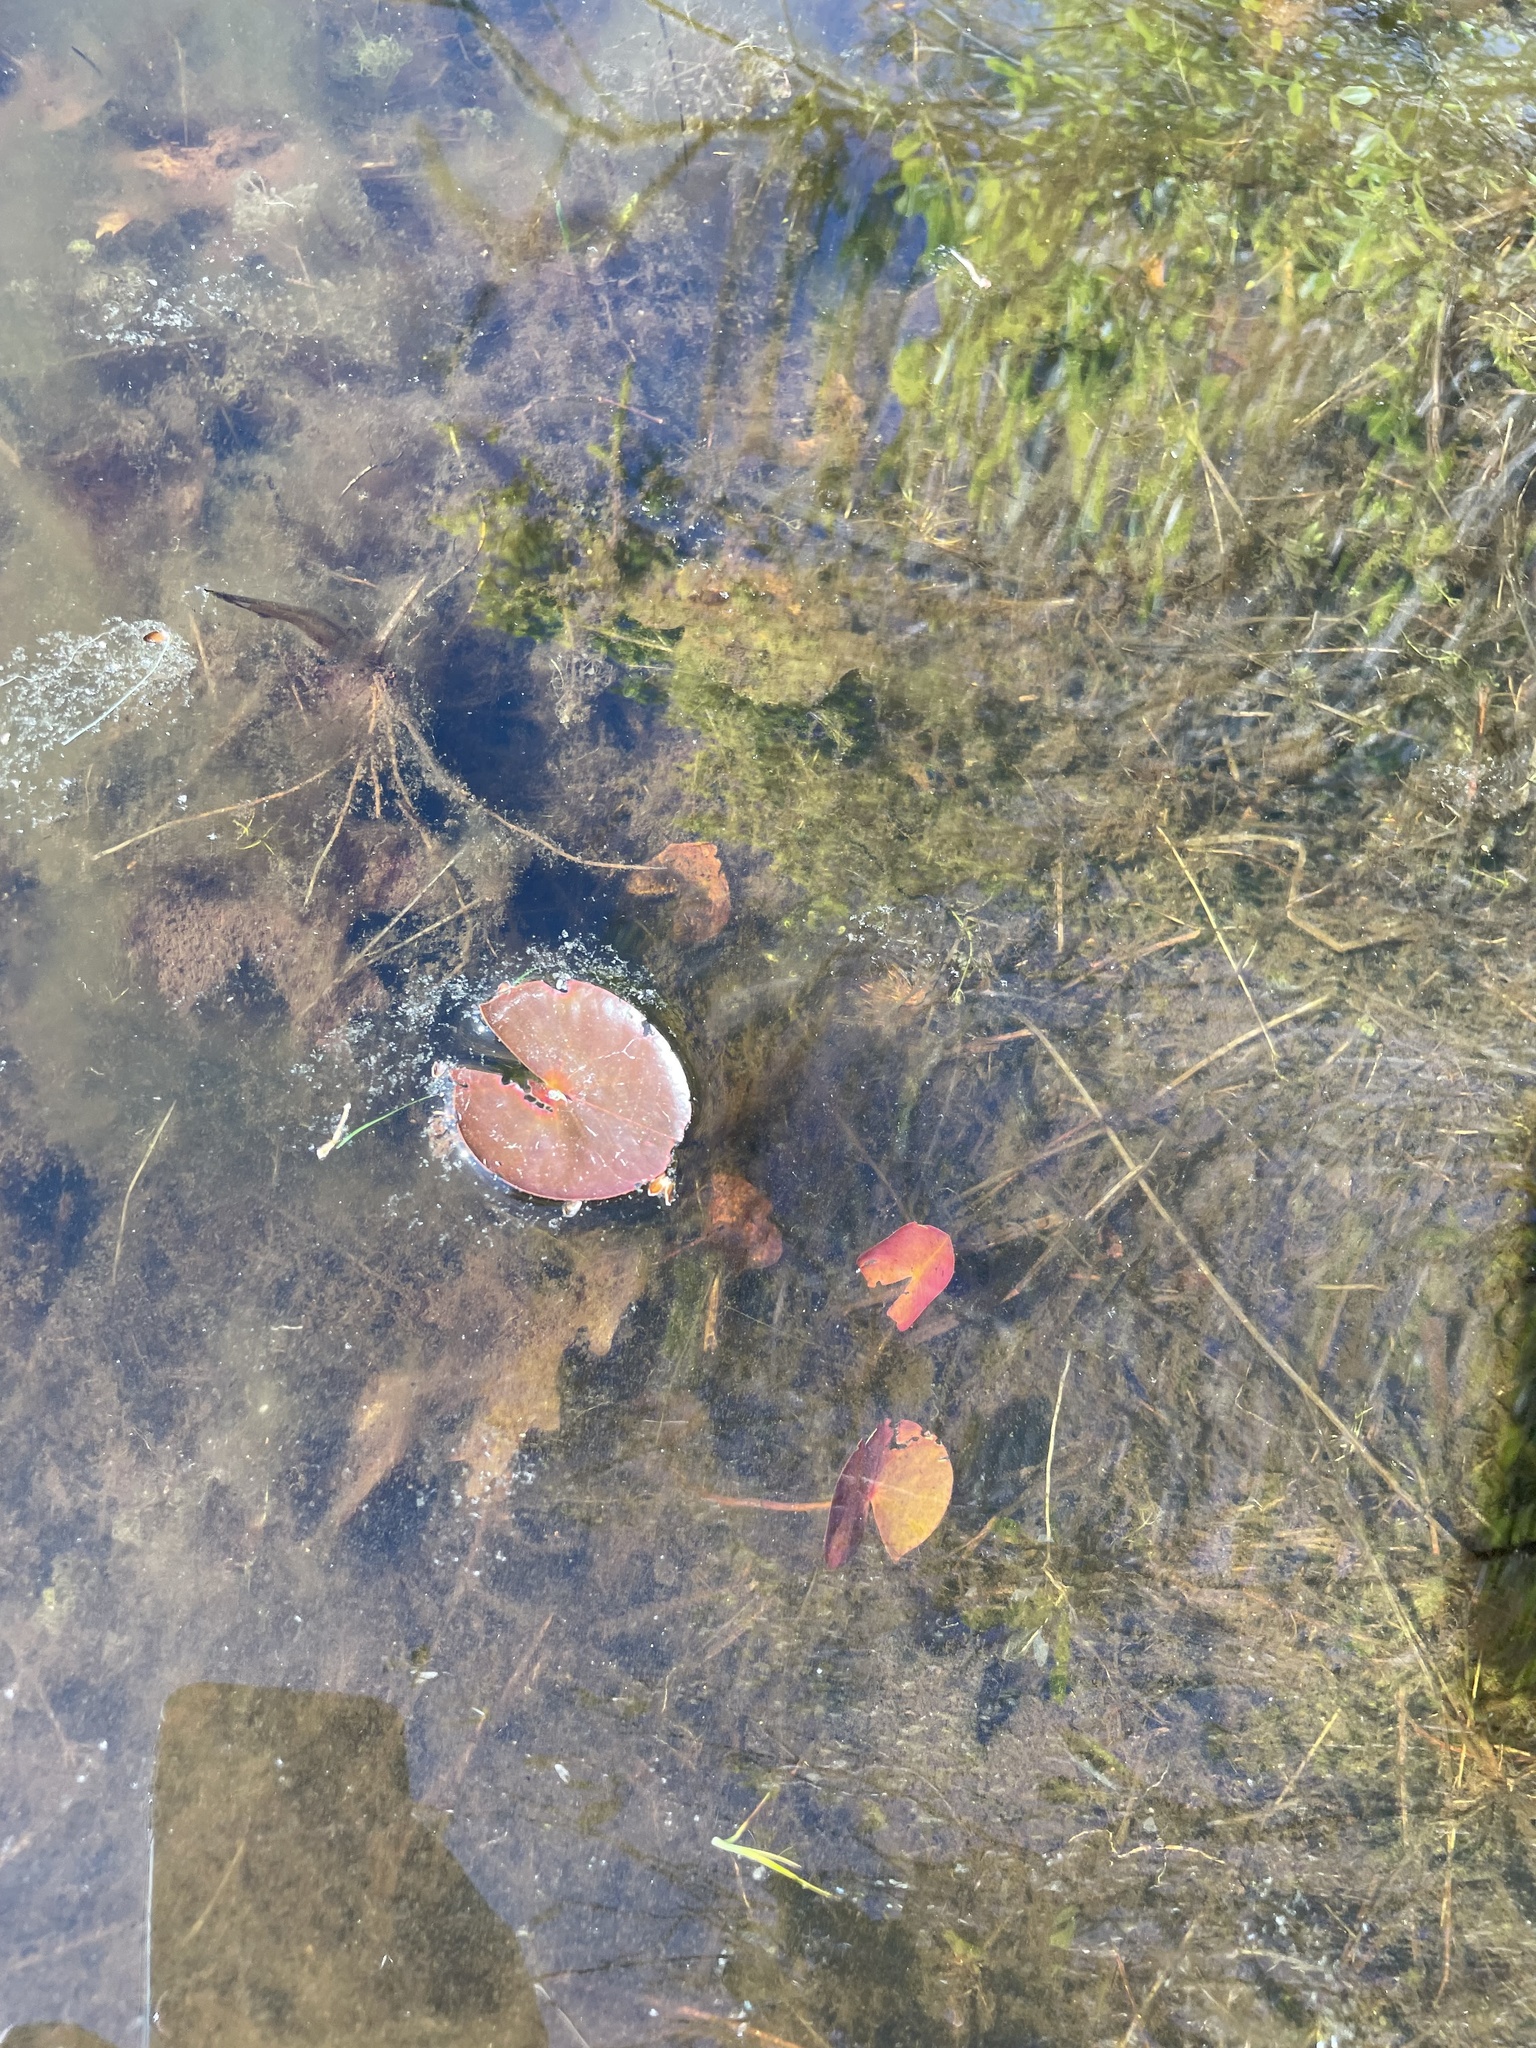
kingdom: Plantae
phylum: Tracheophyta
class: Magnoliopsida
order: Nymphaeales
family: Nymphaeaceae
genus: Nymphaea
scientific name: Nymphaea odorata
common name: Fragrant water-lily
